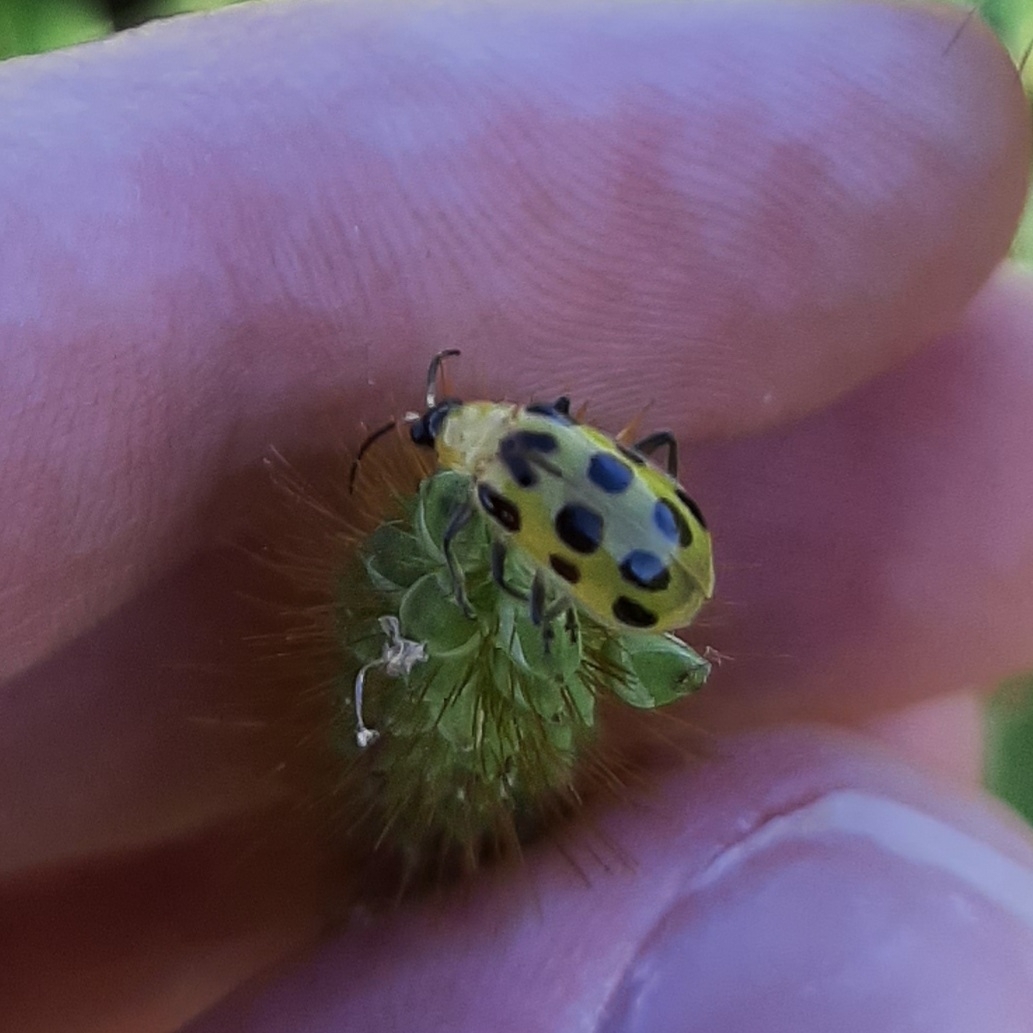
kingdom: Animalia
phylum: Arthropoda
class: Insecta
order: Coleoptera
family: Chrysomelidae
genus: Diabrotica
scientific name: Diabrotica undecimpunctata
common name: Spotted cucumber beetle
